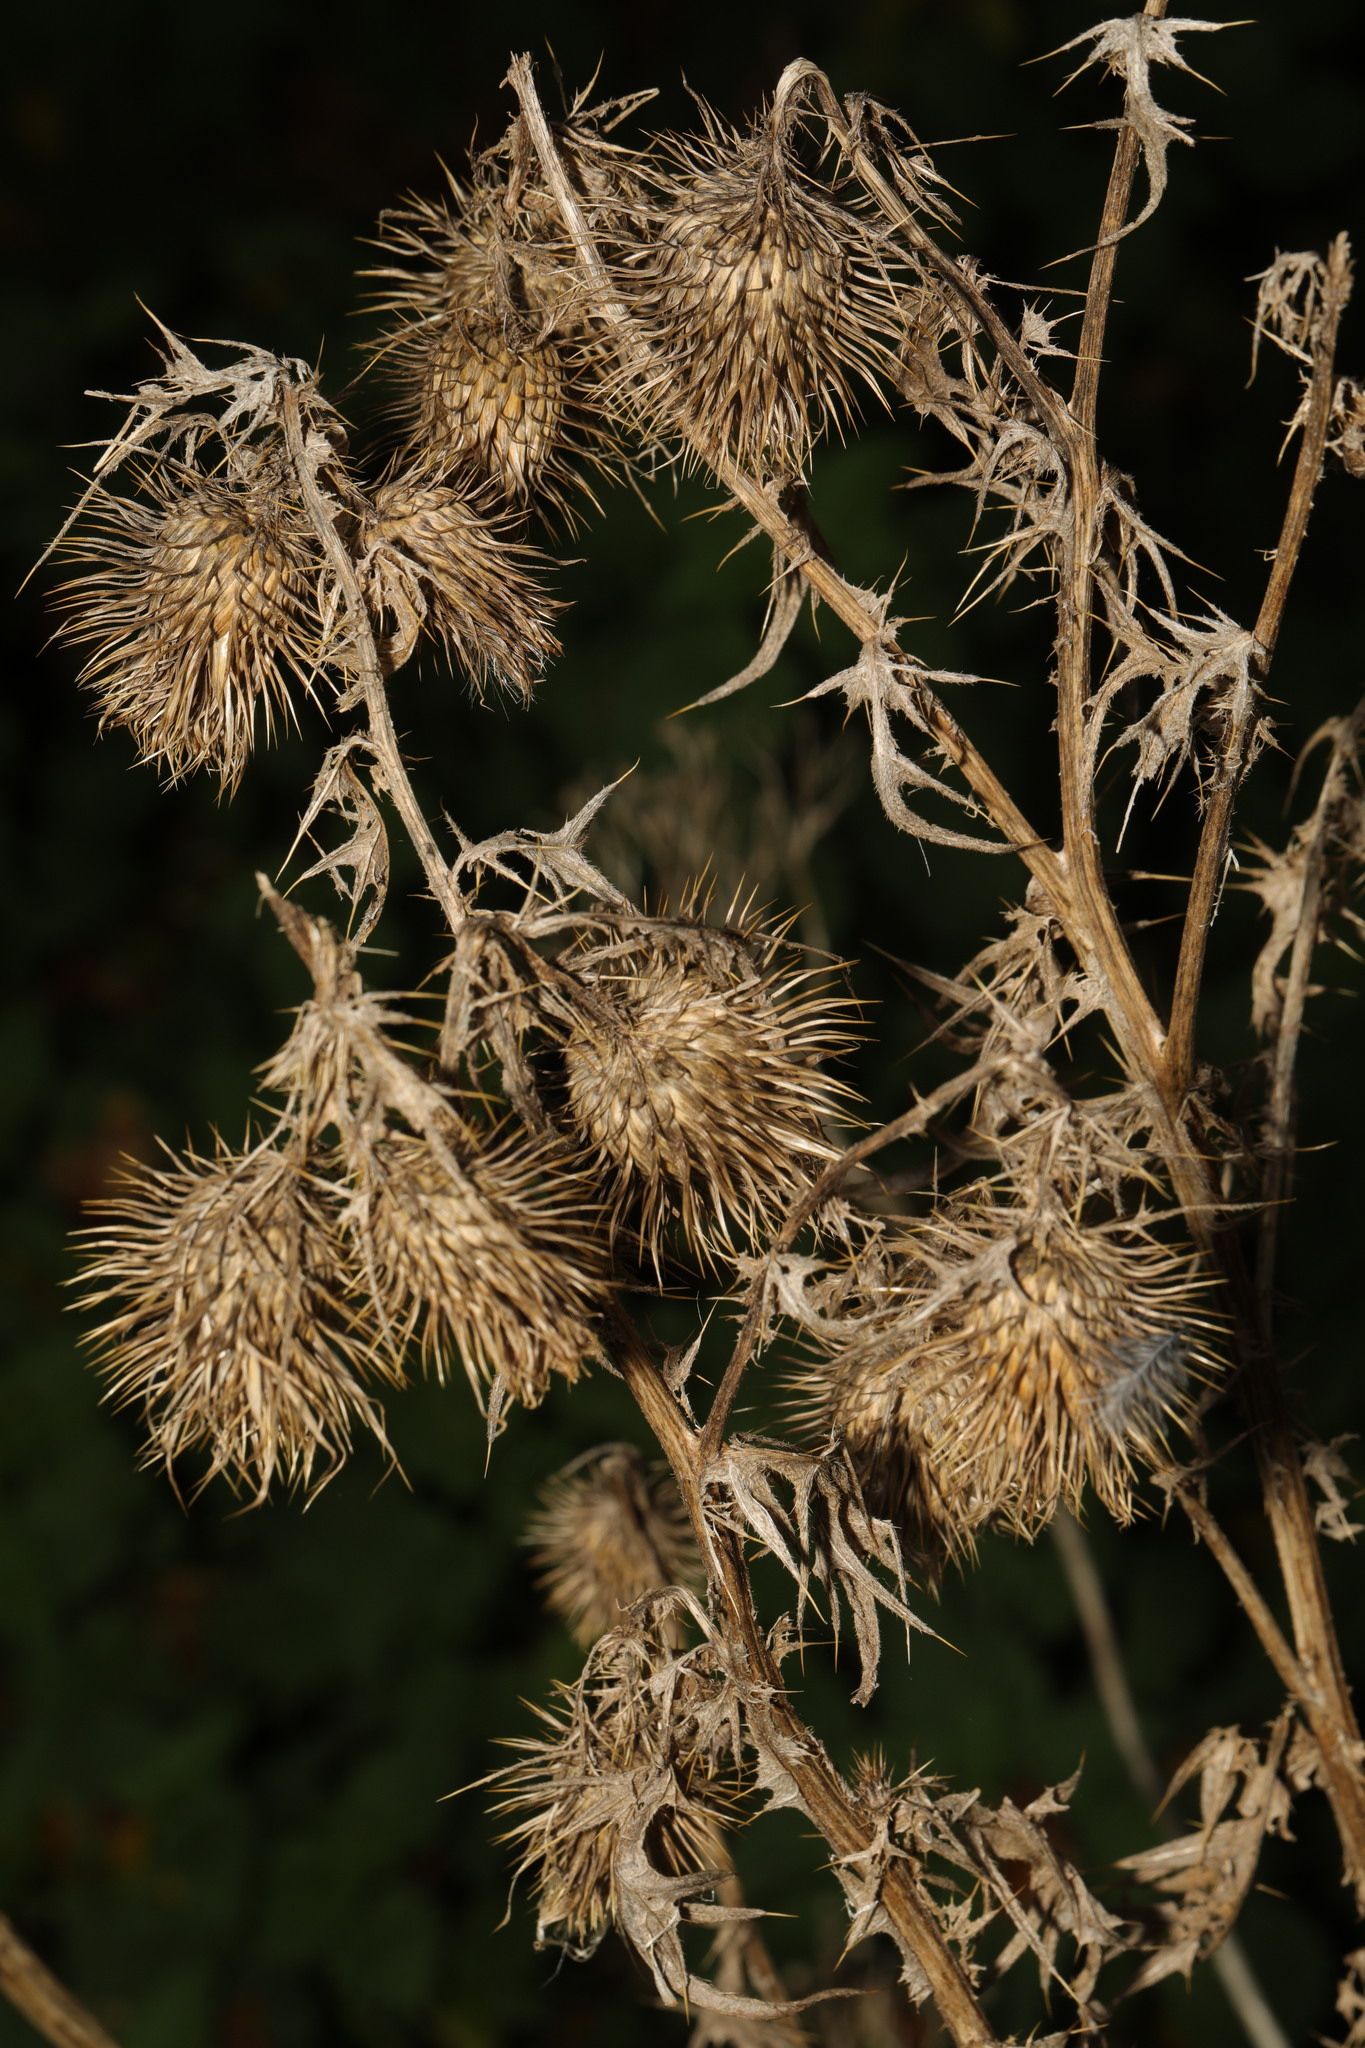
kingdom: Plantae
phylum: Tracheophyta
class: Magnoliopsida
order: Asterales
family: Asteraceae
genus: Cirsium
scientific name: Cirsium vulgare
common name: Bull thistle
